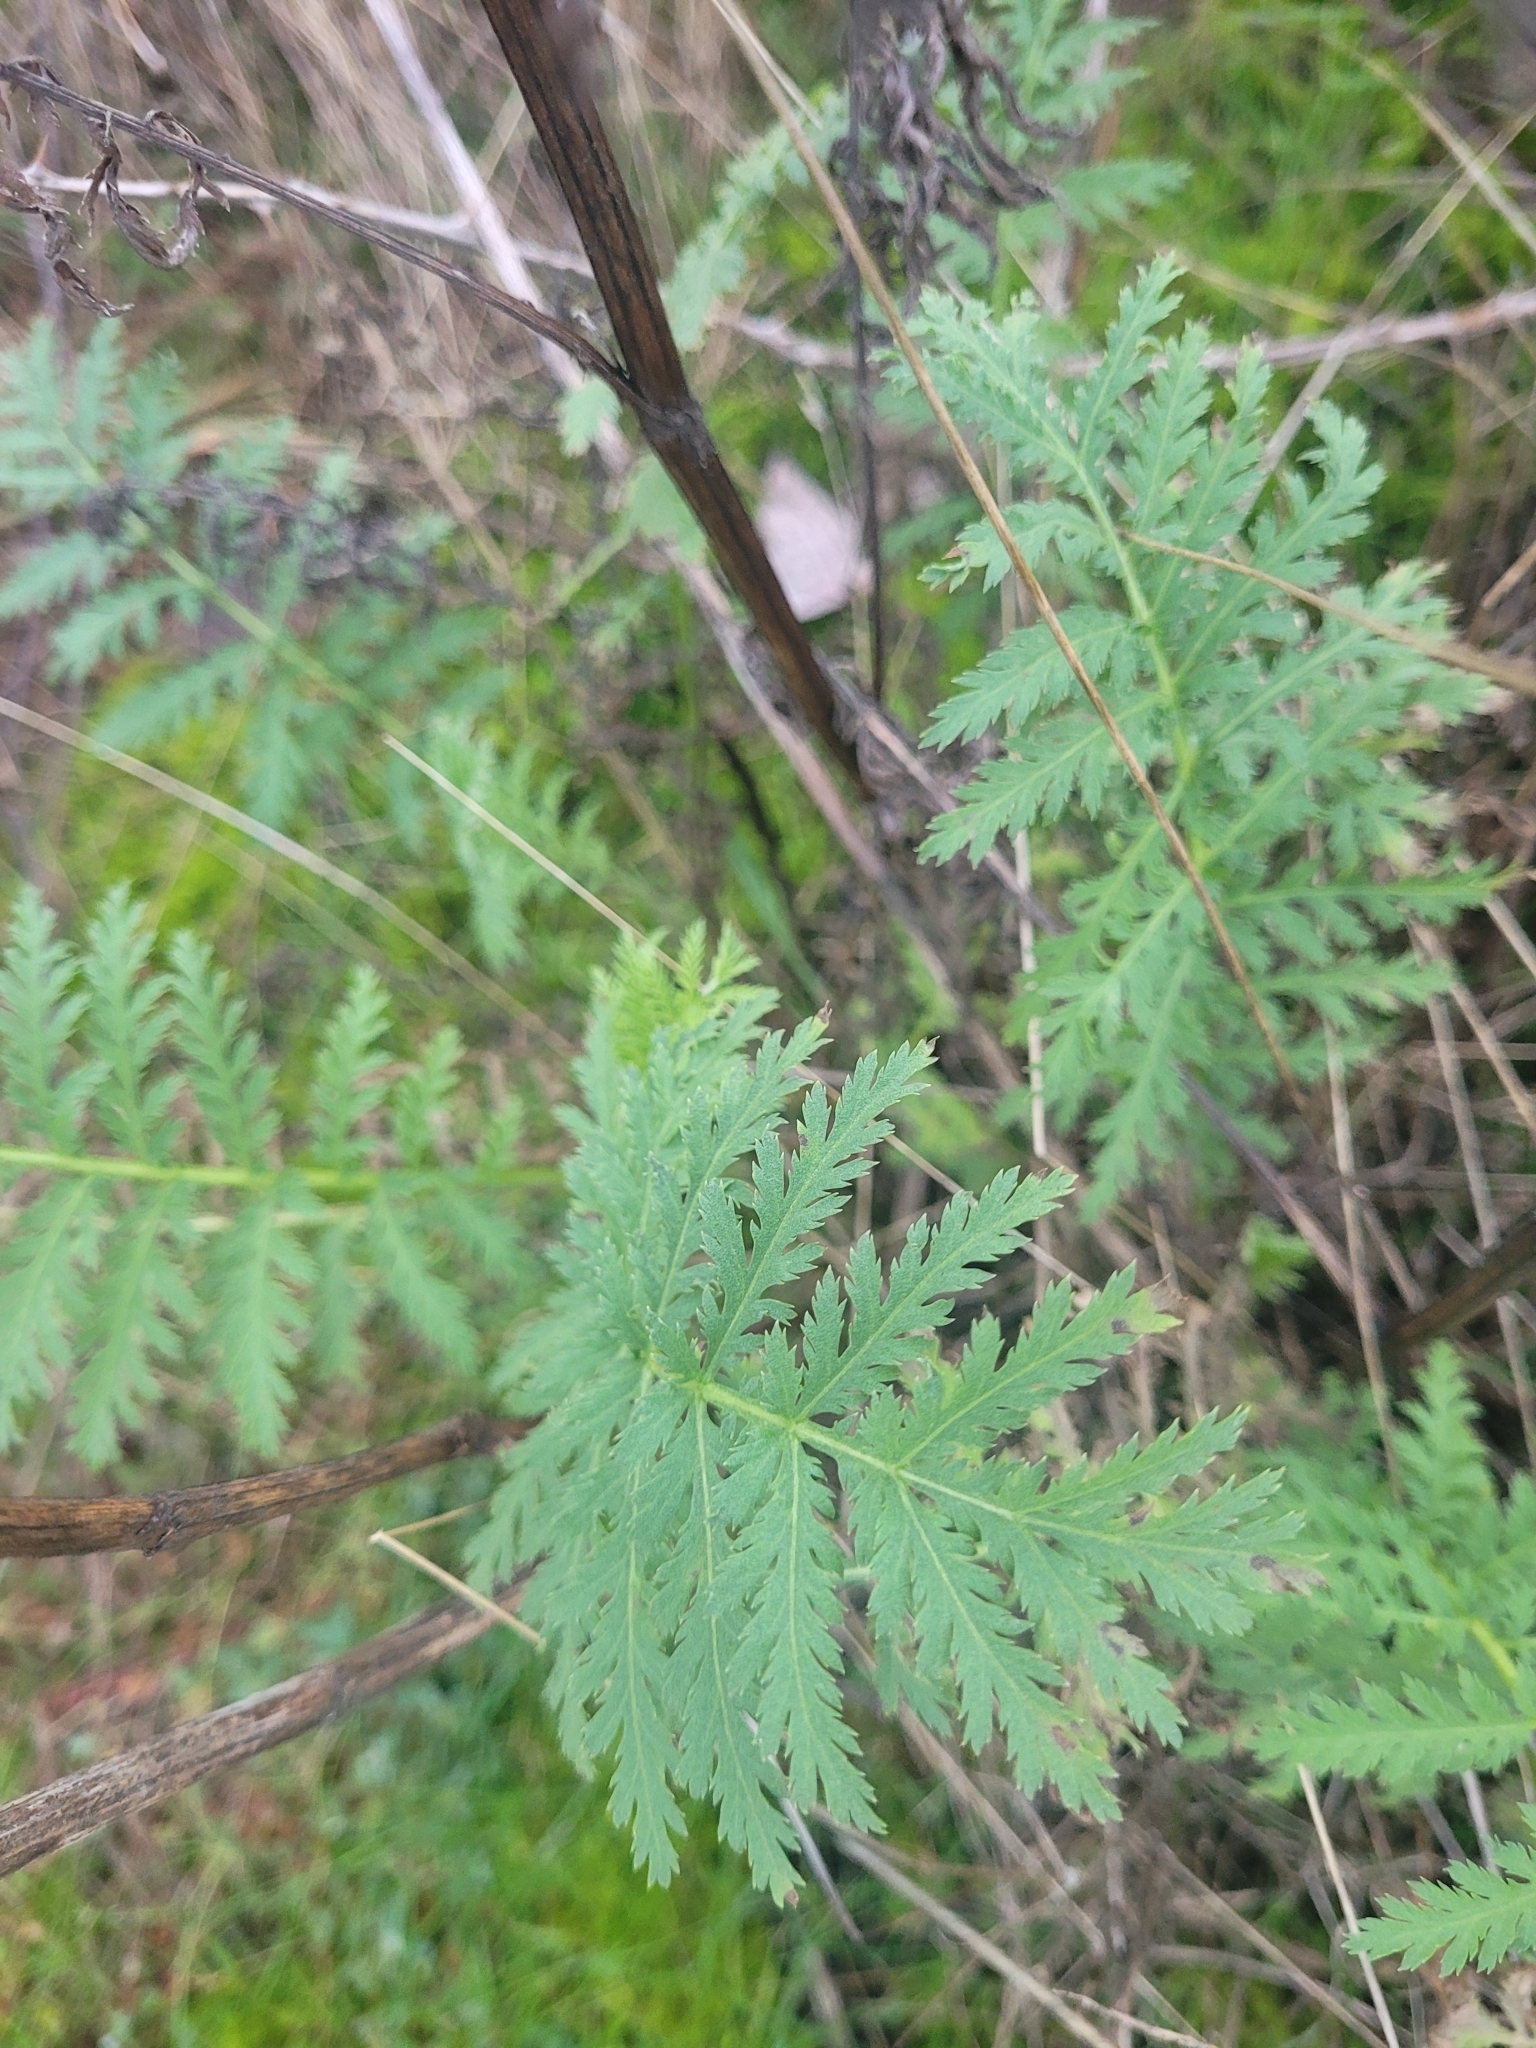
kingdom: Plantae
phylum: Tracheophyta
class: Magnoliopsida
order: Asterales
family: Asteraceae
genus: Tanacetum
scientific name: Tanacetum vulgare
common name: Common tansy
